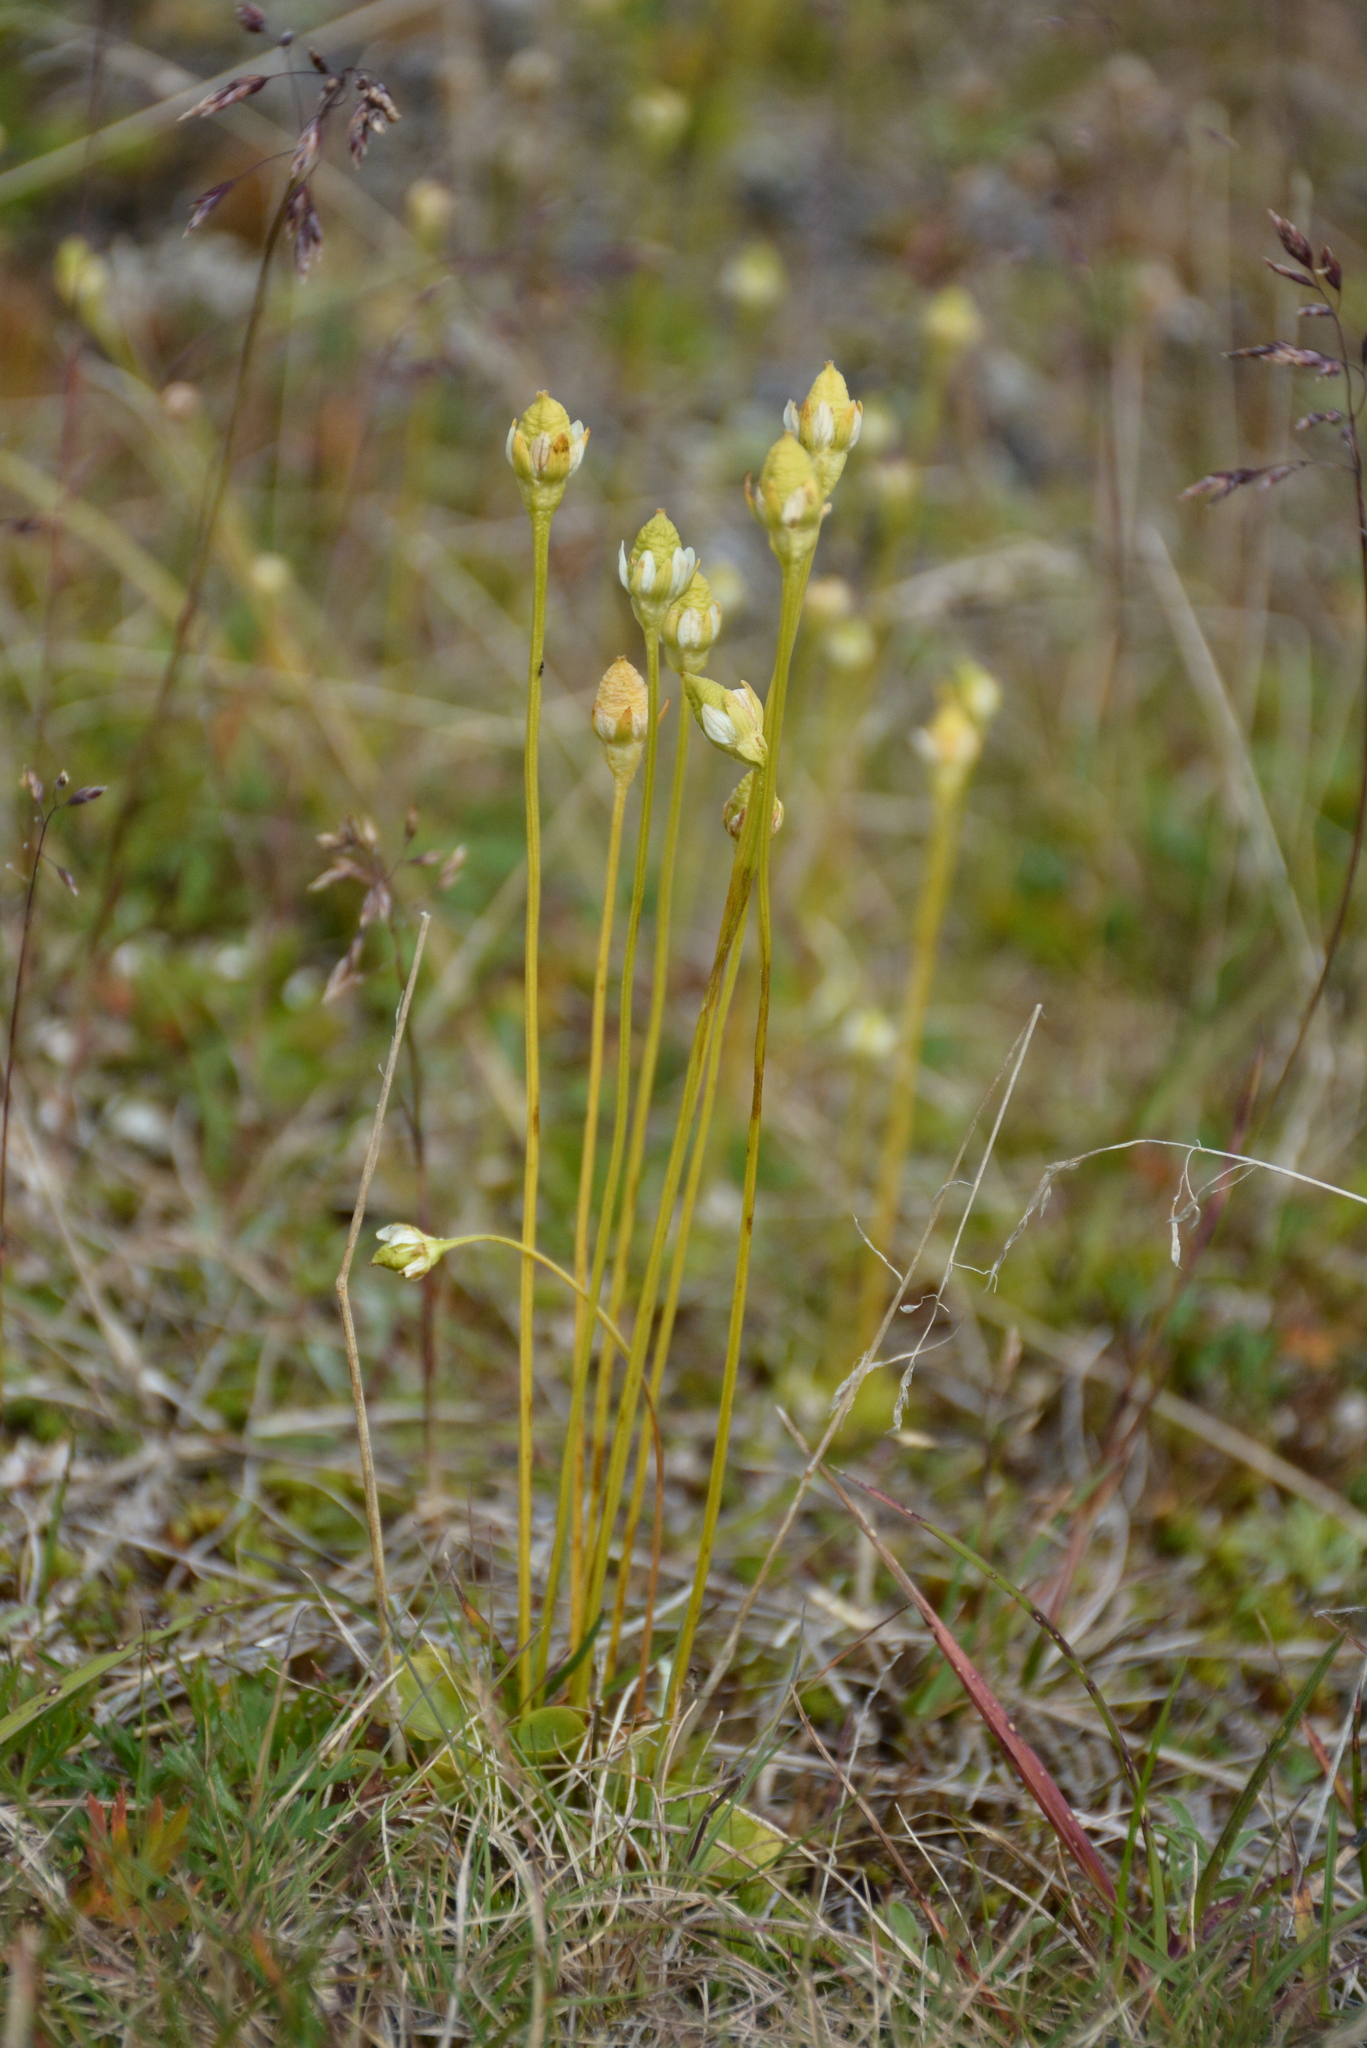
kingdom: Plantae
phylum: Tracheophyta
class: Magnoliopsida
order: Celastrales
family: Parnassiaceae
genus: Parnassia
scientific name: Parnassia kotzebuei
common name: Kotzebue's grass-of-parnassus
